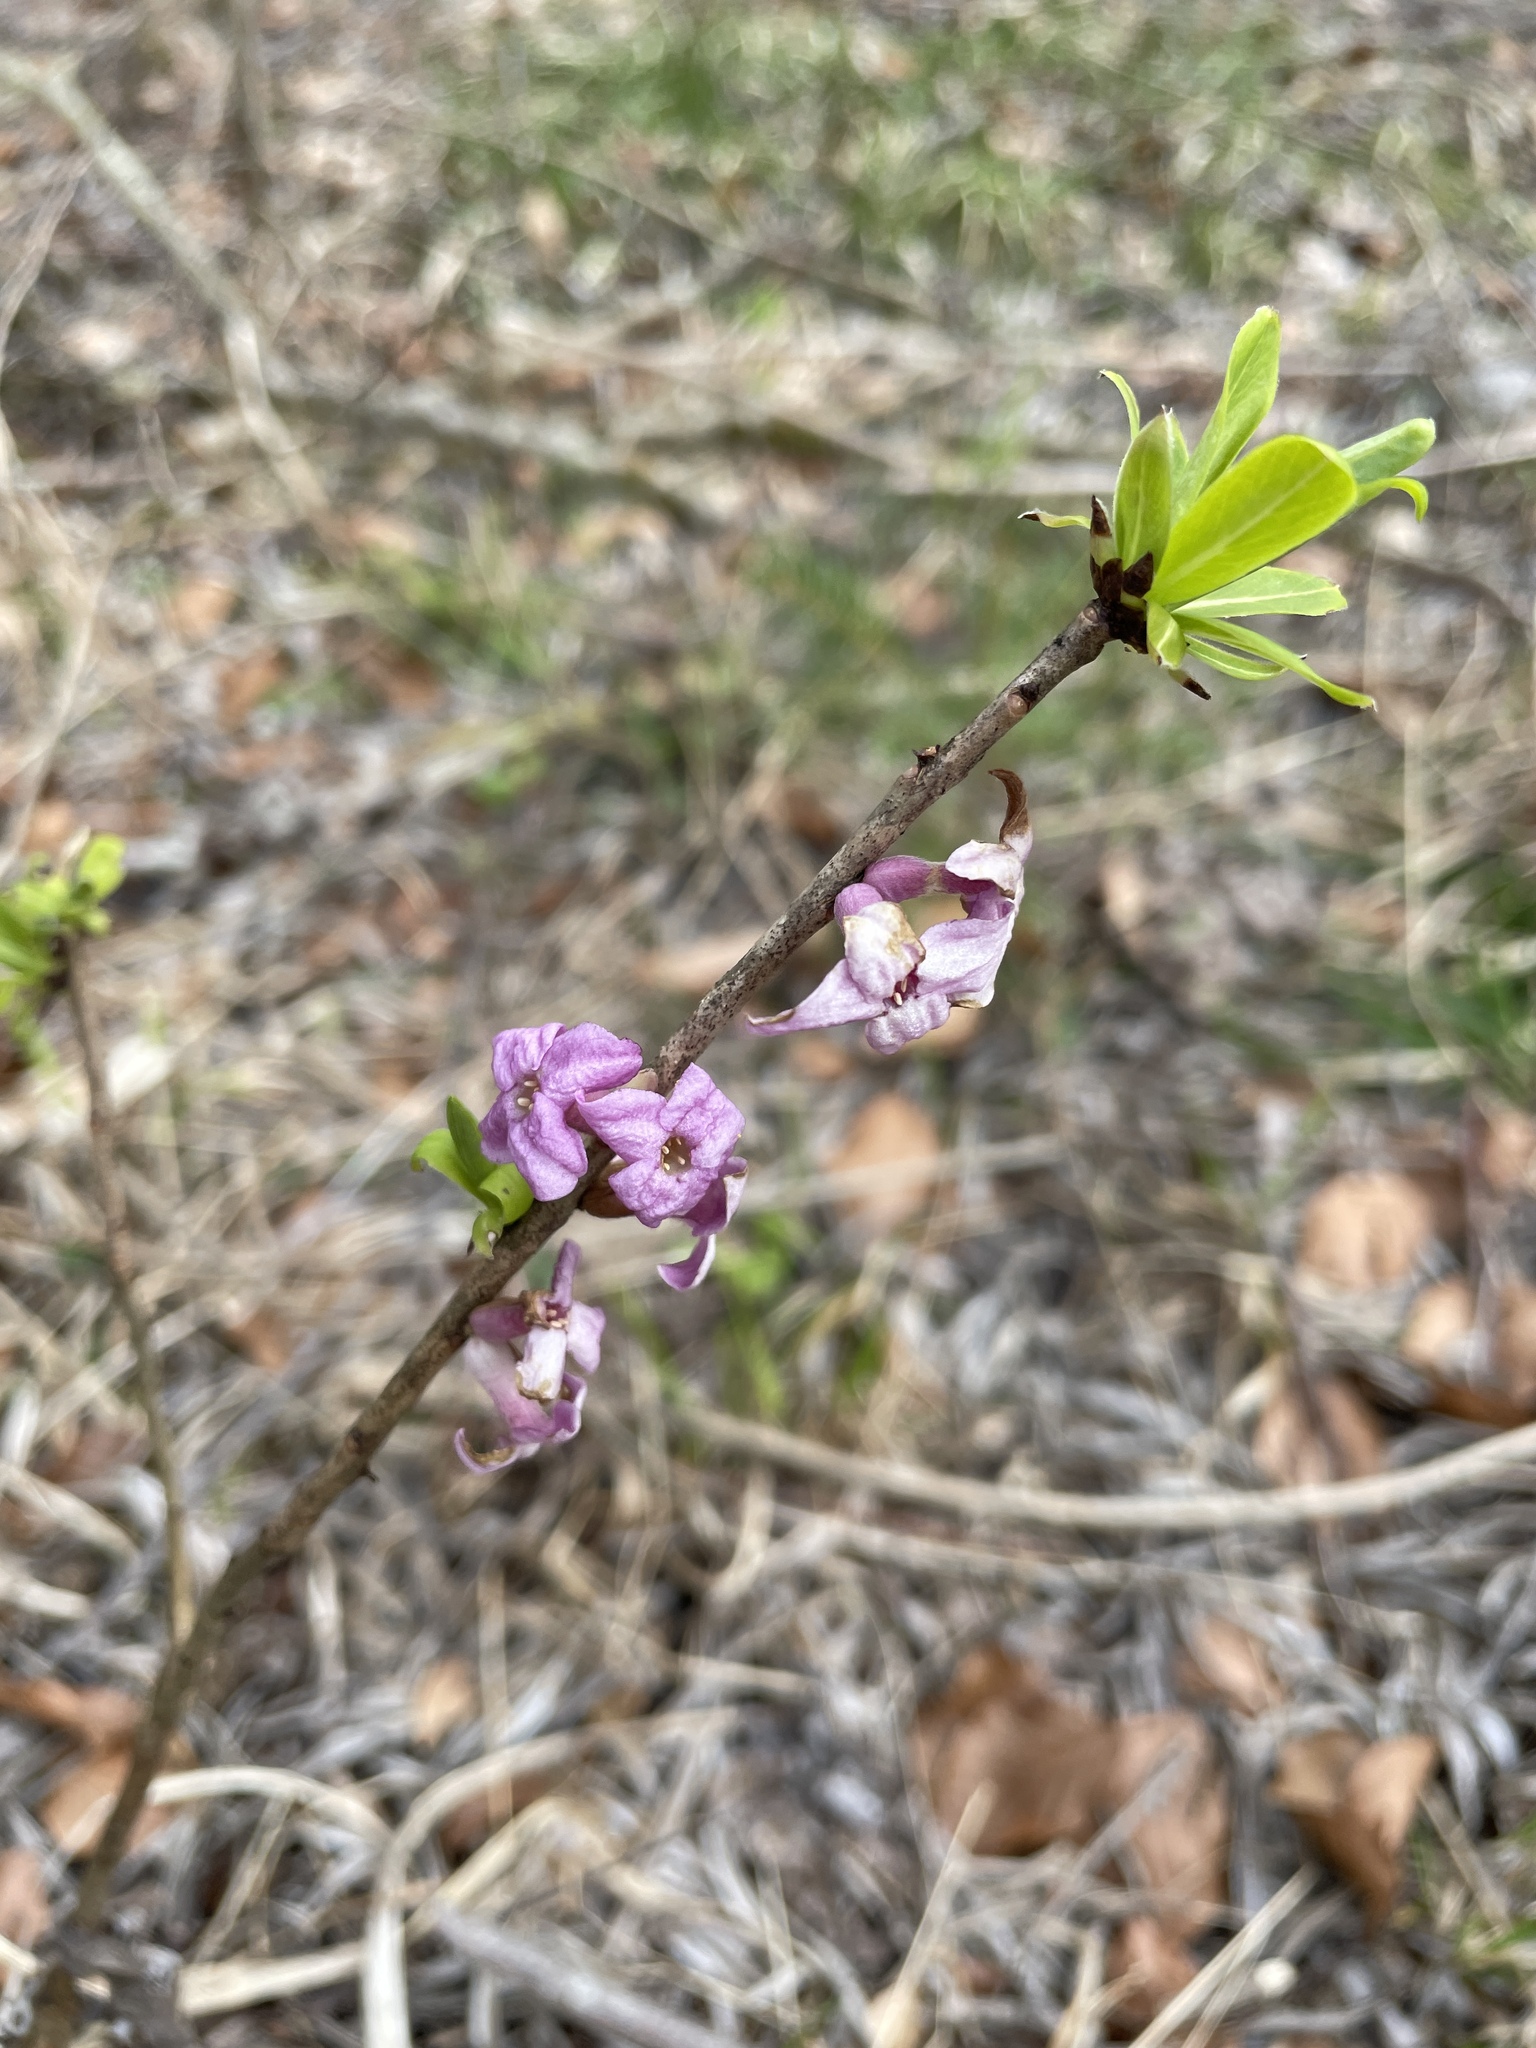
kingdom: Plantae
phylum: Tracheophyta
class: Magnoliopsida
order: Malvales
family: Thymelaeaceae
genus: Daphne
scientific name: Daphne mezereum
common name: Mezereon
